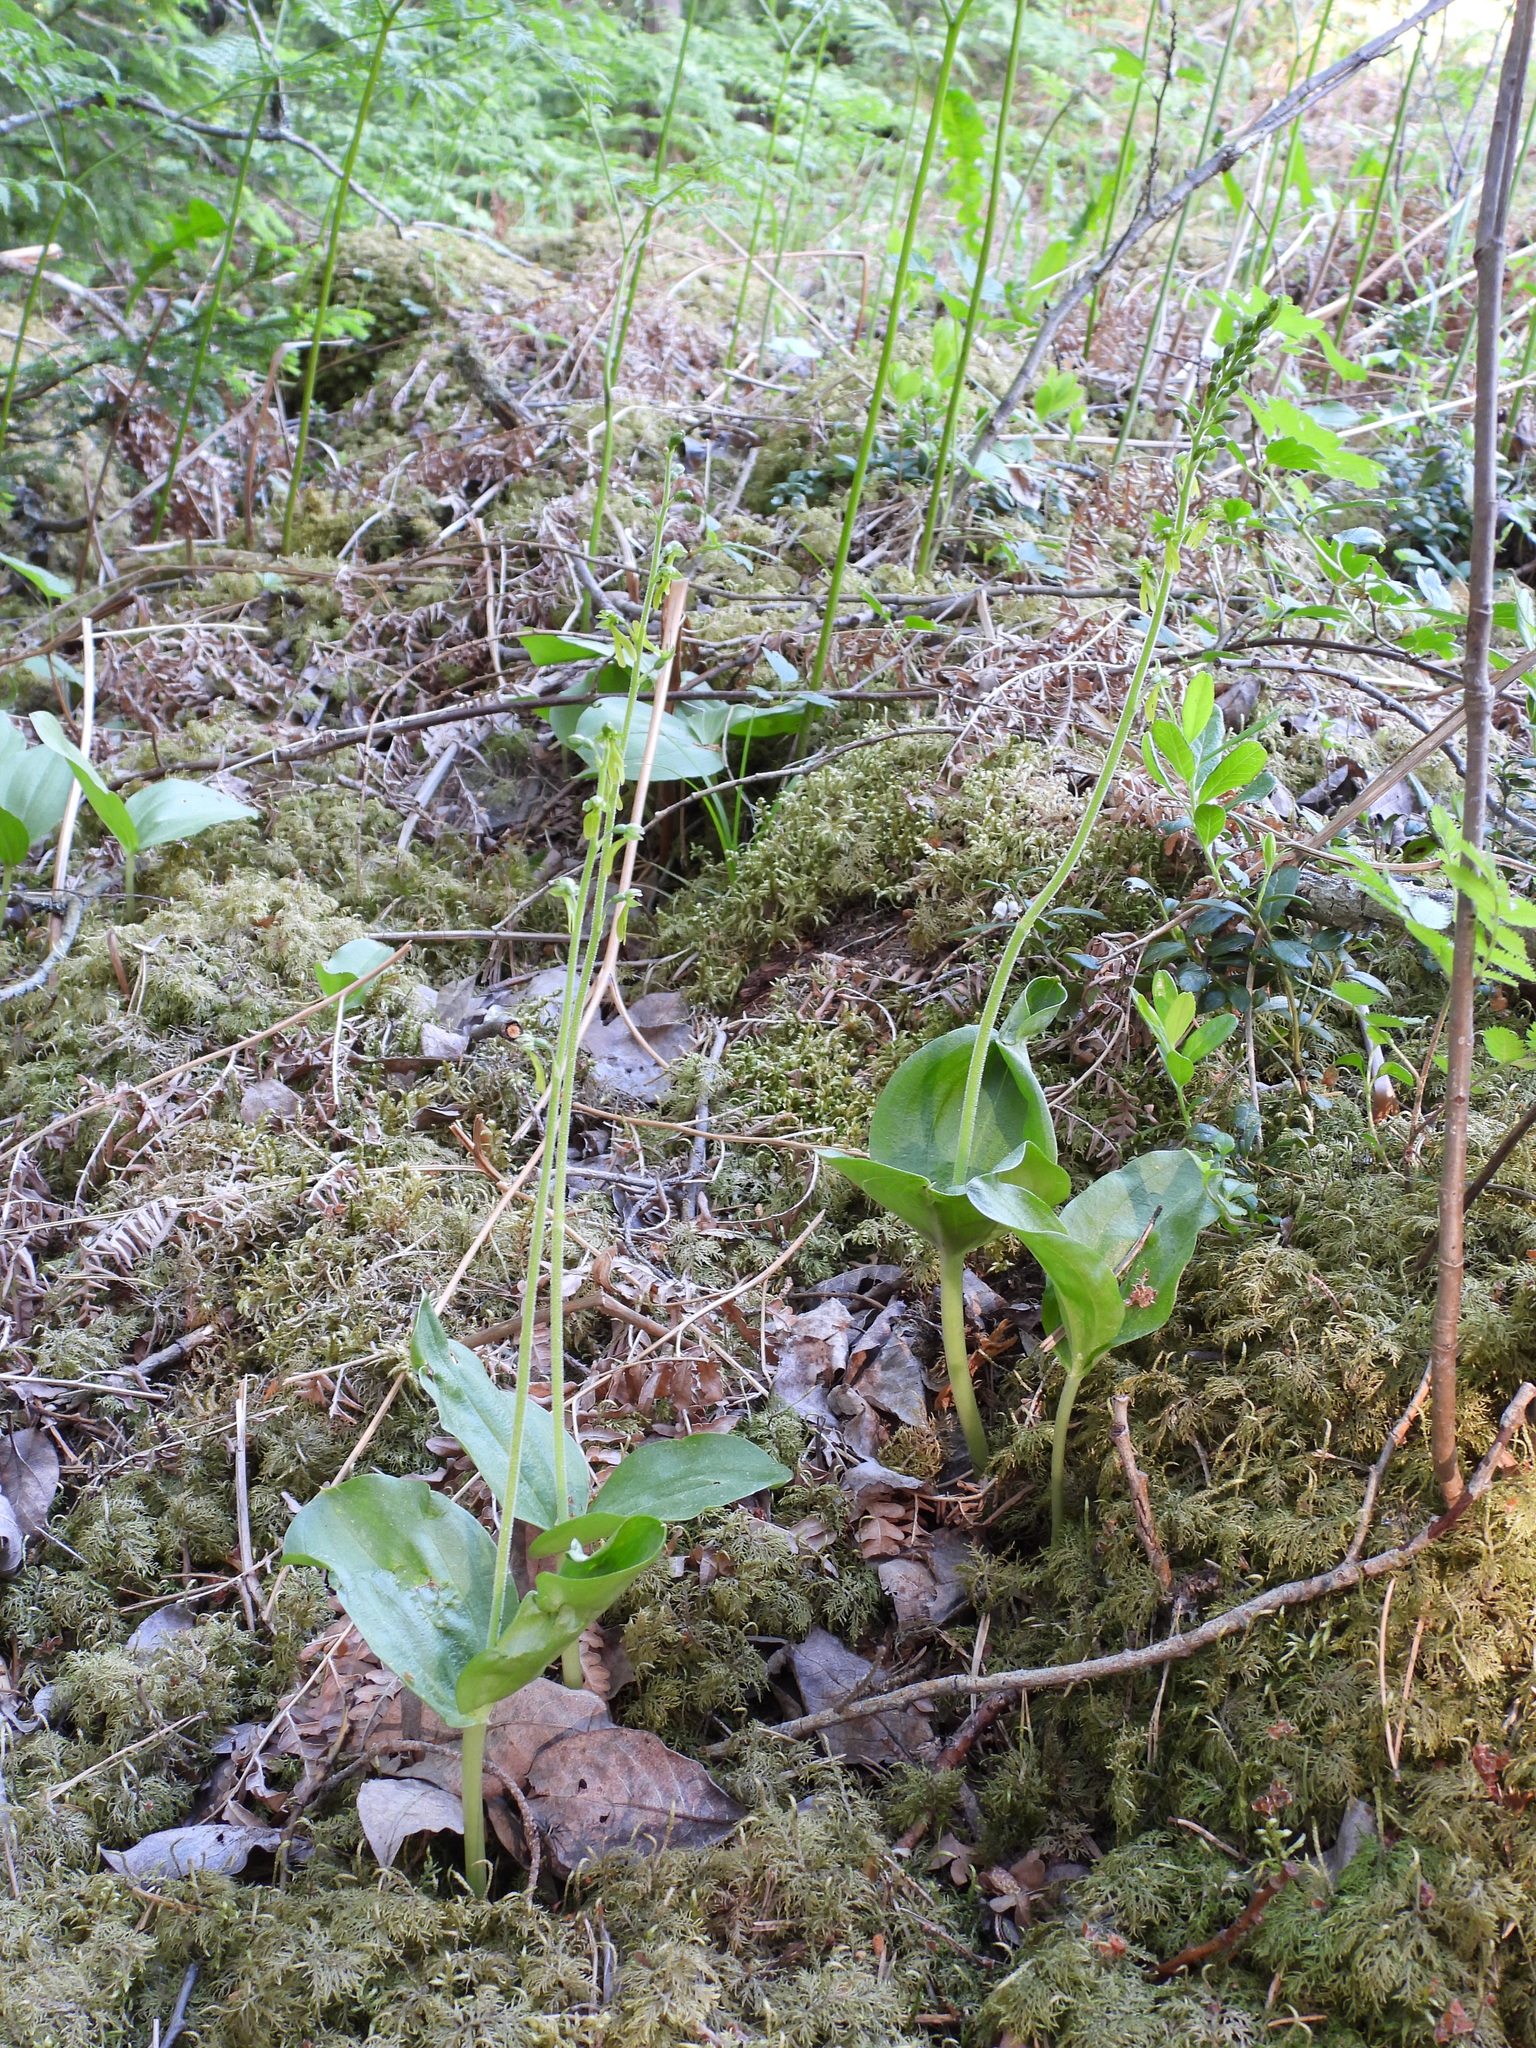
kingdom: Plantae
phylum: Tracheophyta
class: Liliopsida
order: Asparagales
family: Orchidaceae
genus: Neottia
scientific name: Neottia ovata
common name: Common twayblade
